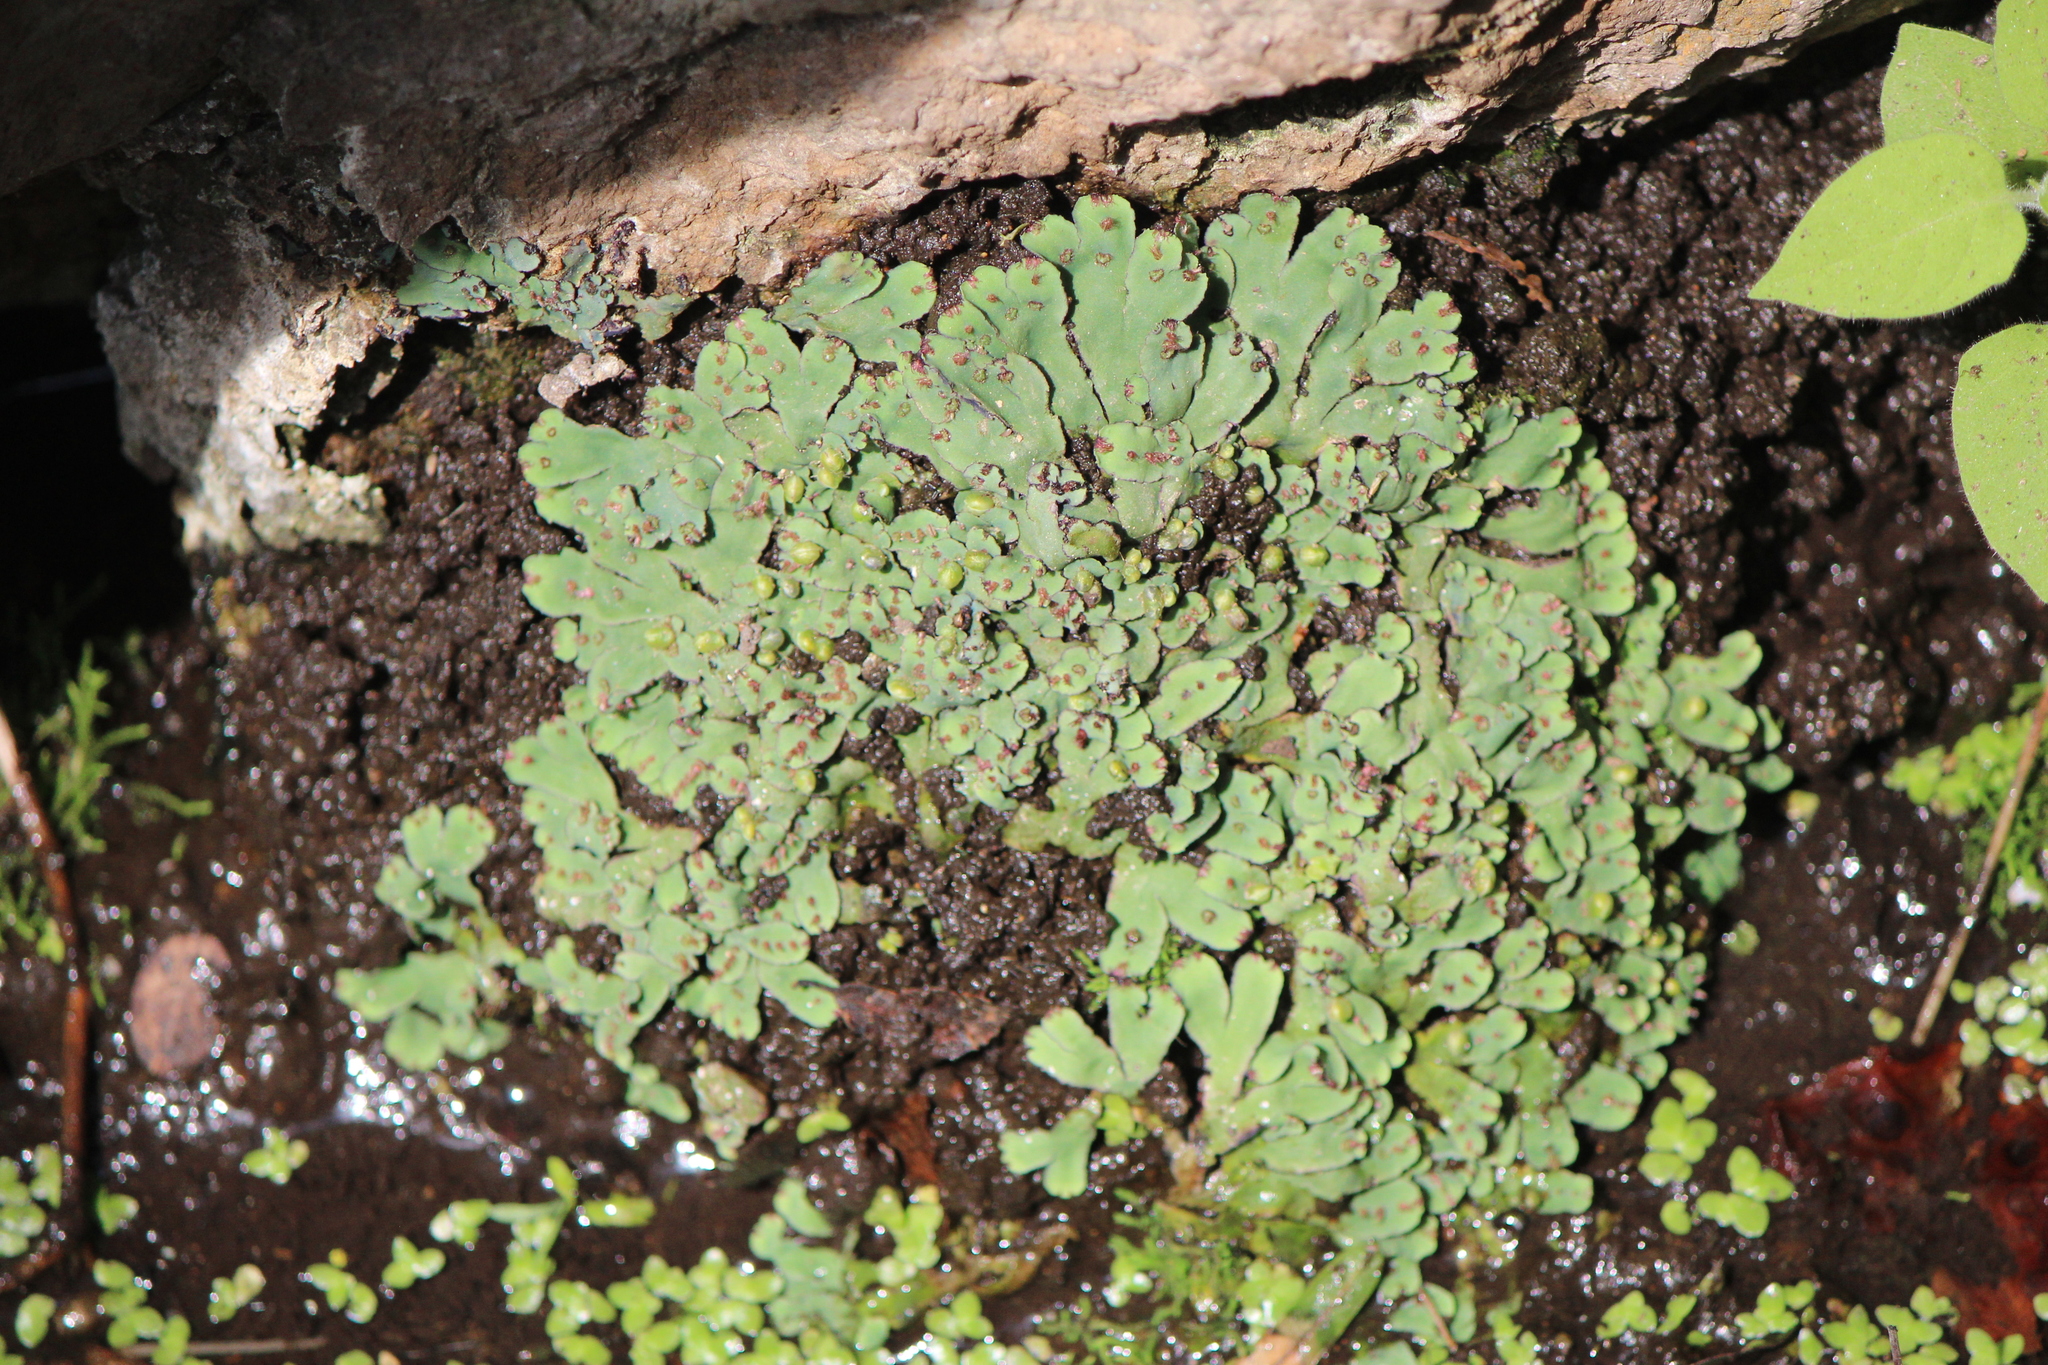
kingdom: Plantae
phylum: Marchantiophyta
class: Marchantiopsida
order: Marchantiales
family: Aytoniaceae
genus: Plagiochasma
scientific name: Plagiochasma rupestre
